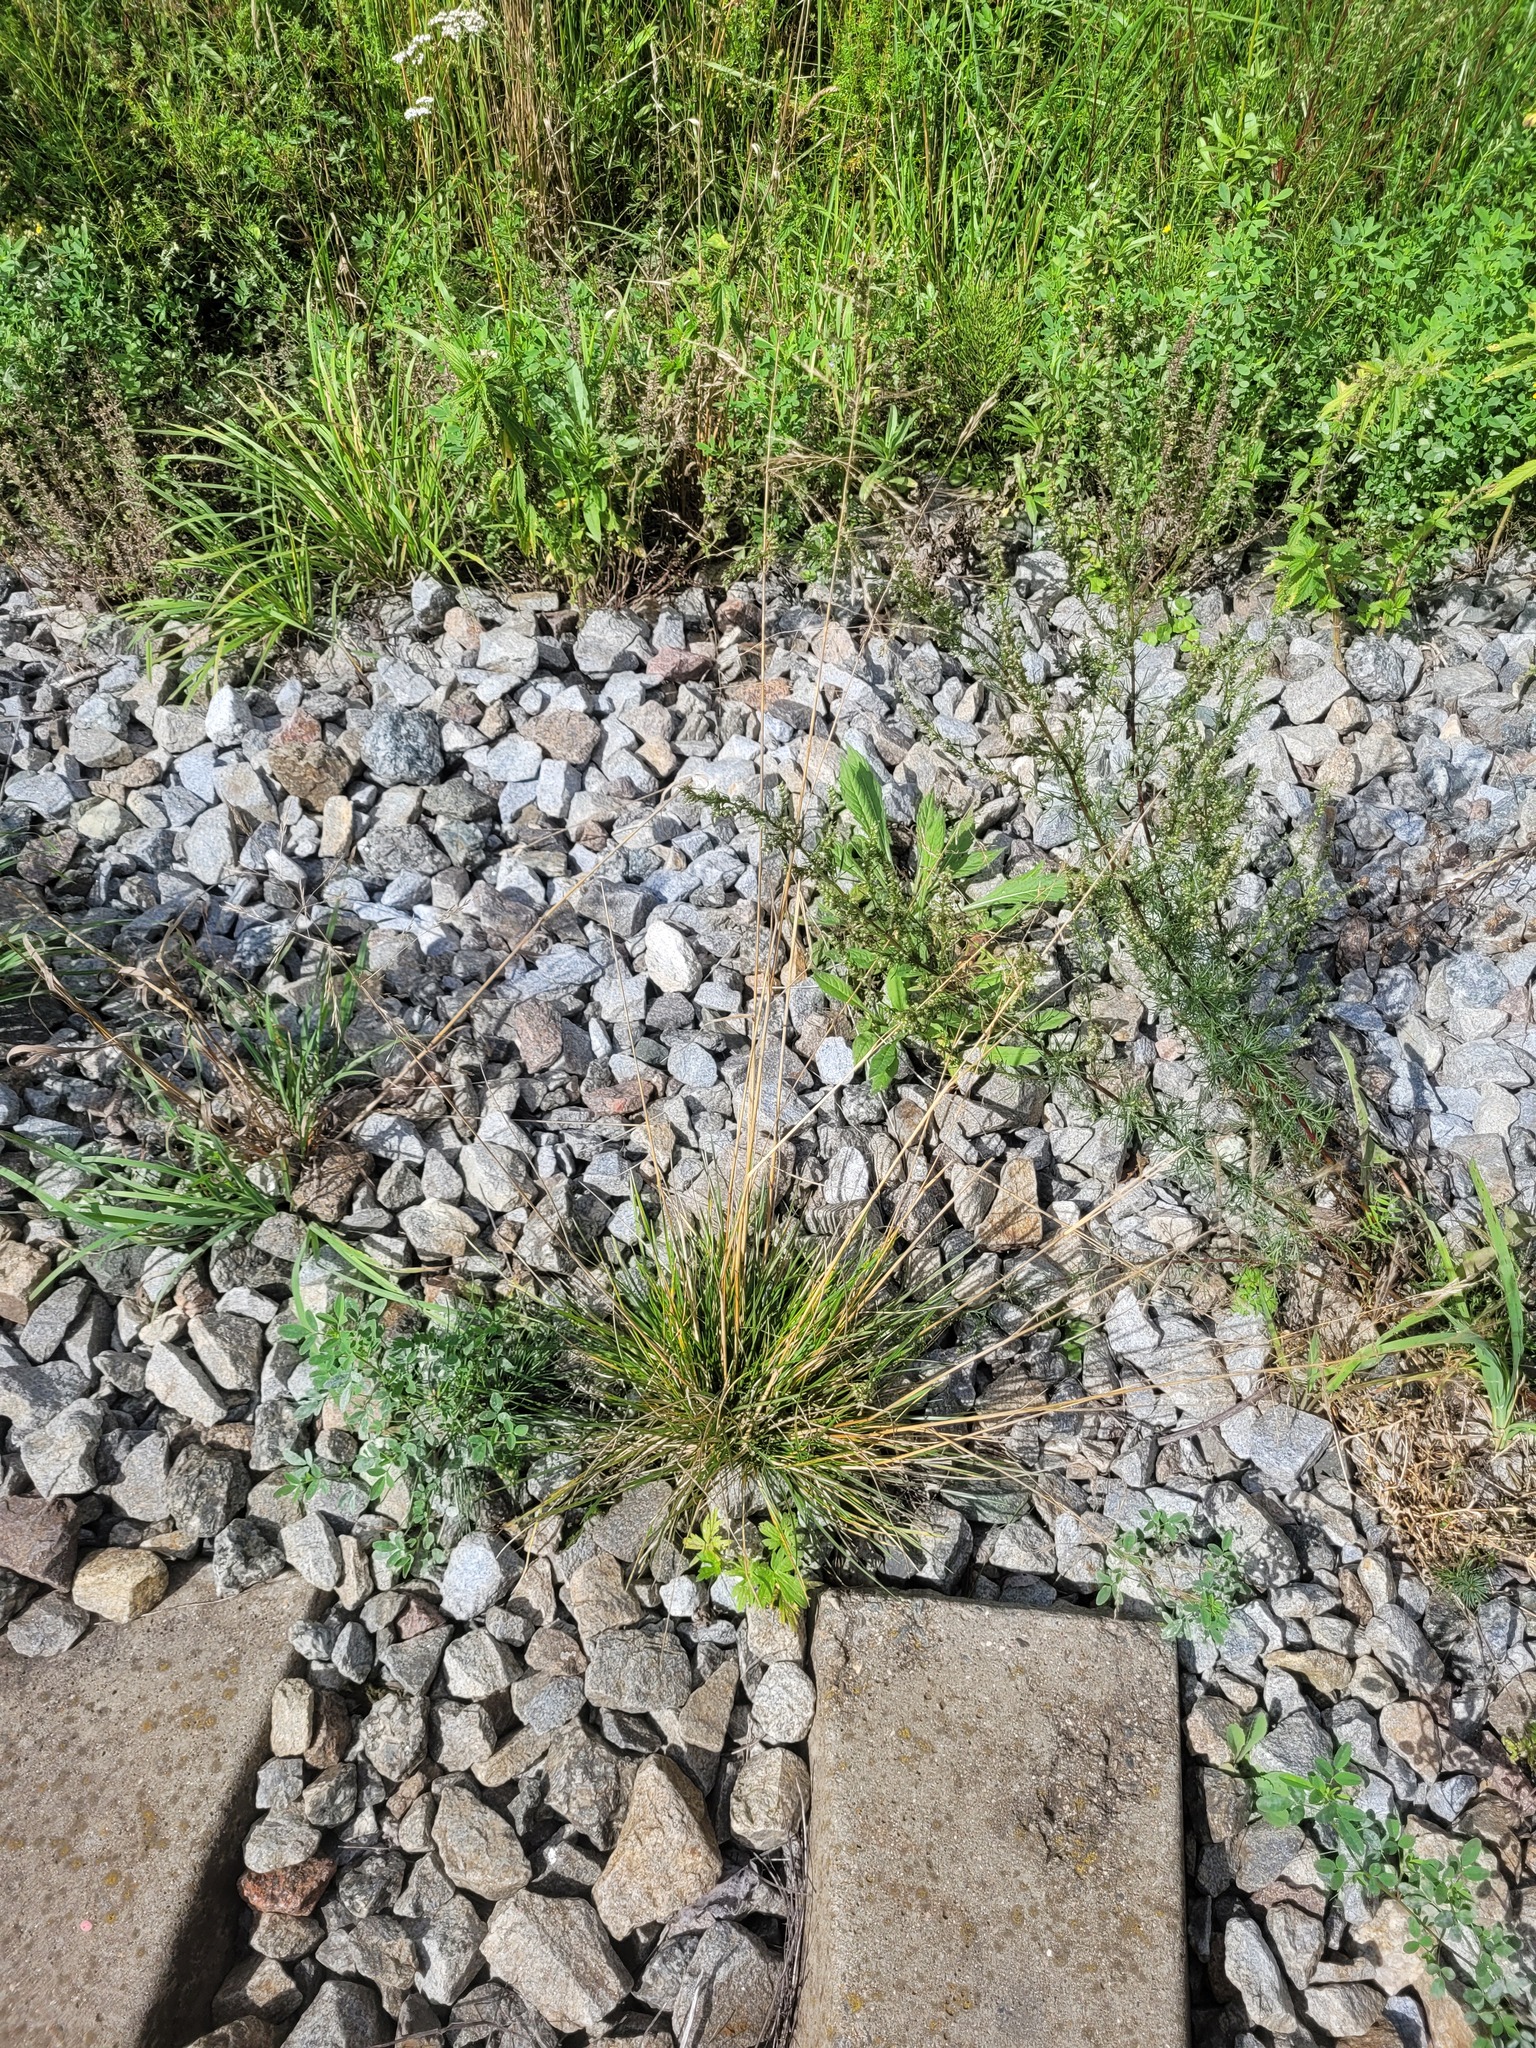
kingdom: Plantae
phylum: Tracheophyta
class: Liliopsida
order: Poales
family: Poaceae
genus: Lolium
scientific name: Lolium pratense
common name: Dover grass
